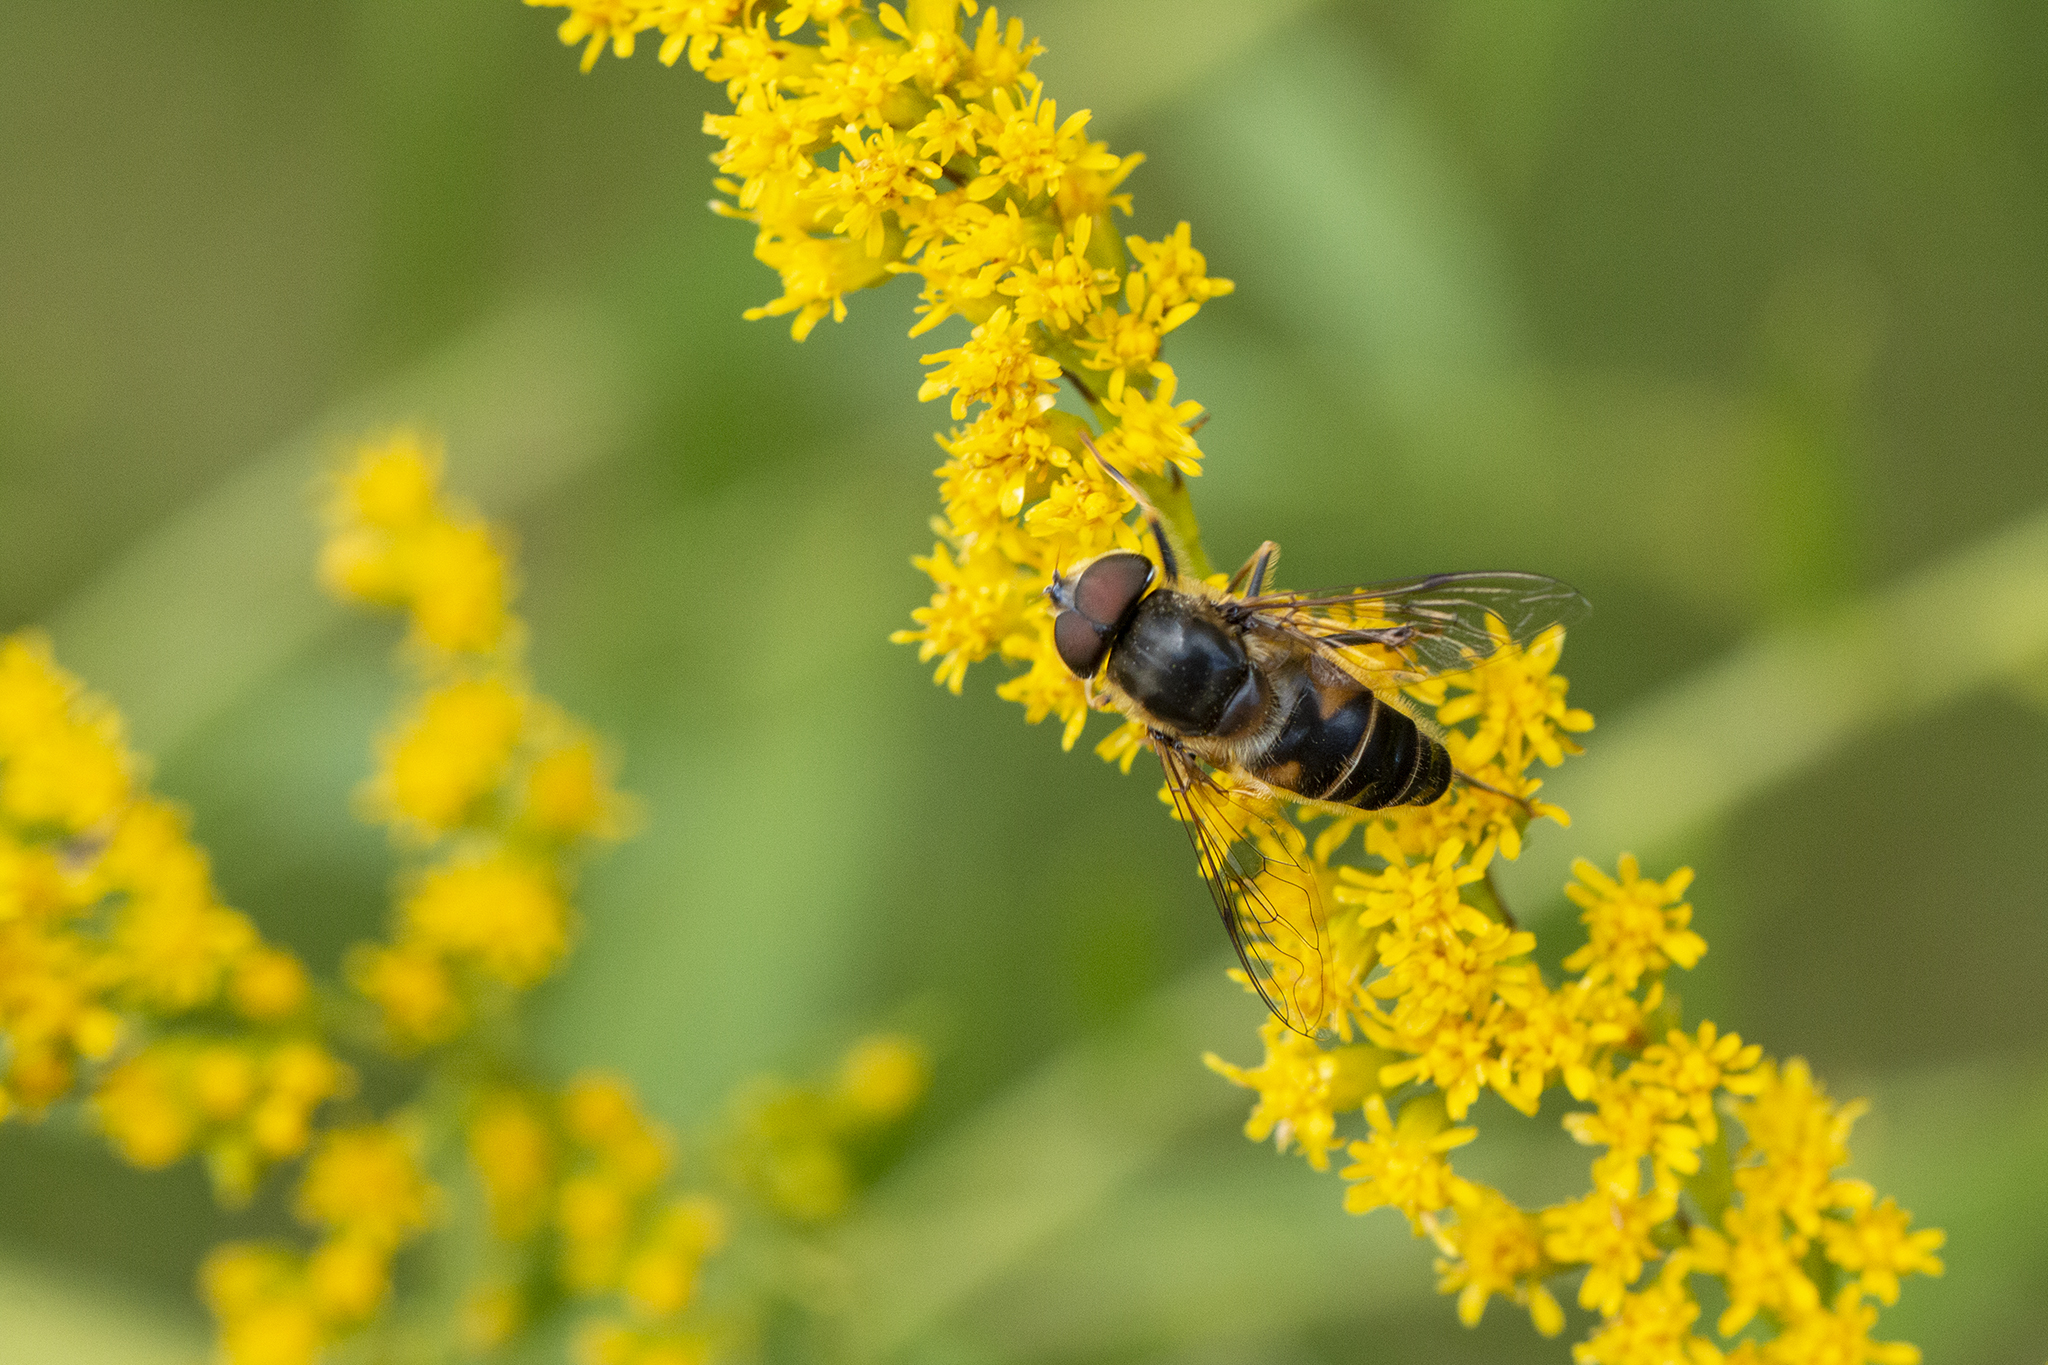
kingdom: Animalia
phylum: Arthropoda
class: Insecta
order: Diptera
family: Syrphidae
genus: Eristalis
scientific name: Eristalis pertinax
